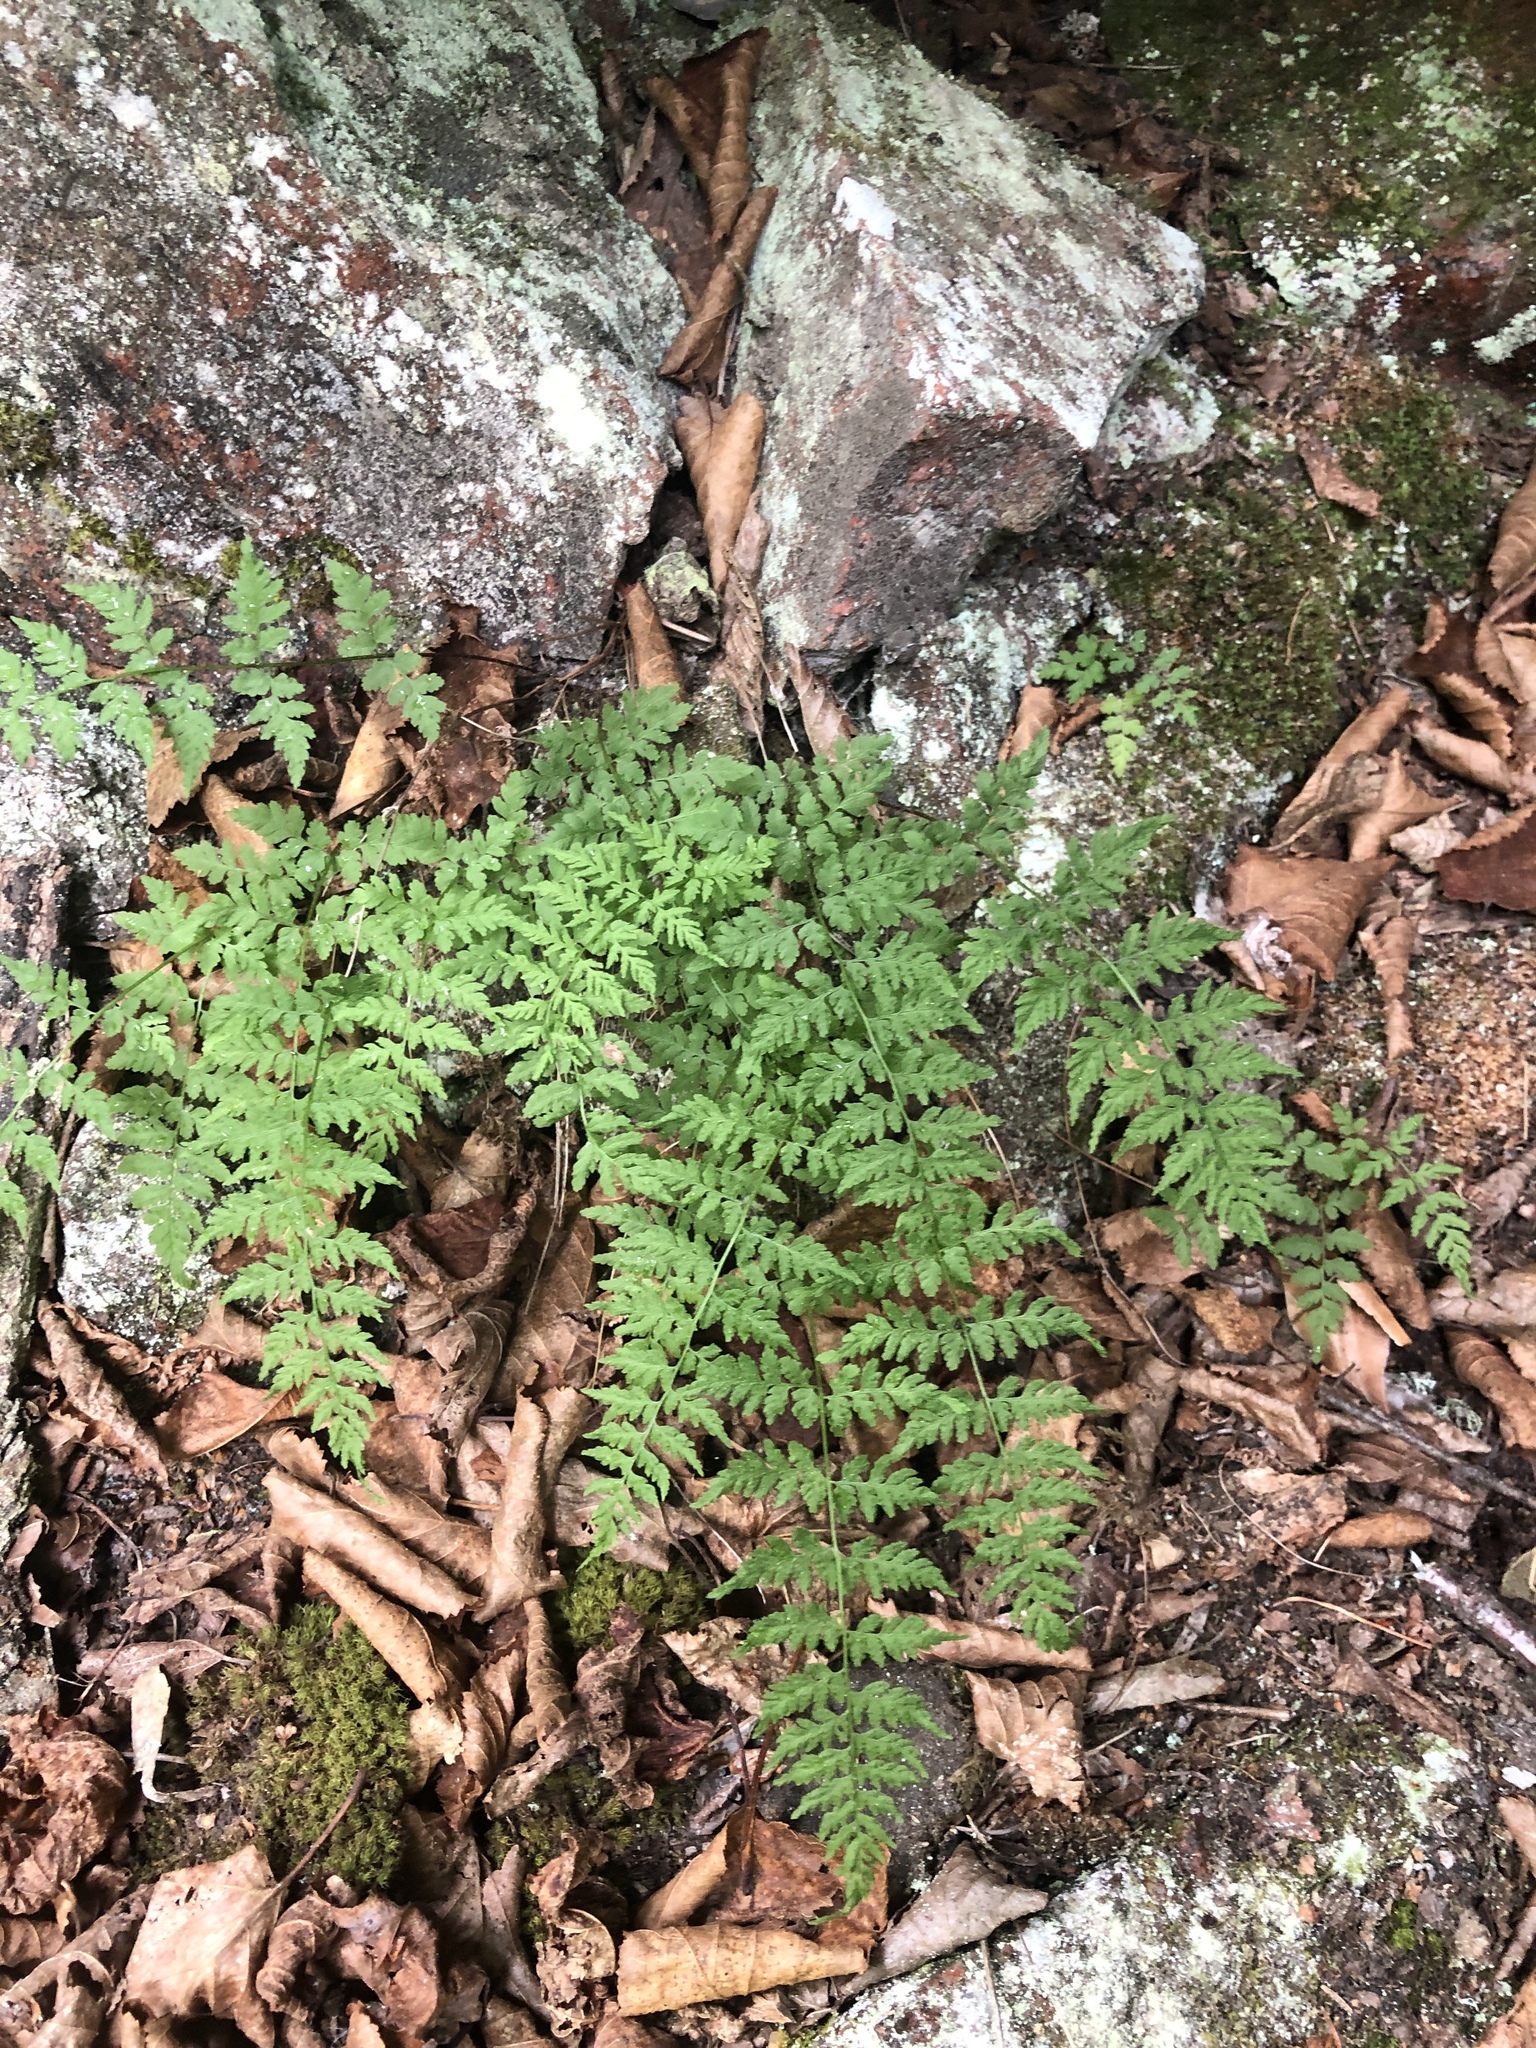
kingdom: Plantae
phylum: Tracheophyta
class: Polypodiopsida
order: Polypodiales
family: Cystopteridaceae
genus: Cystopteris
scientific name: Cystopteris fragilis
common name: Brittle bladder fern
